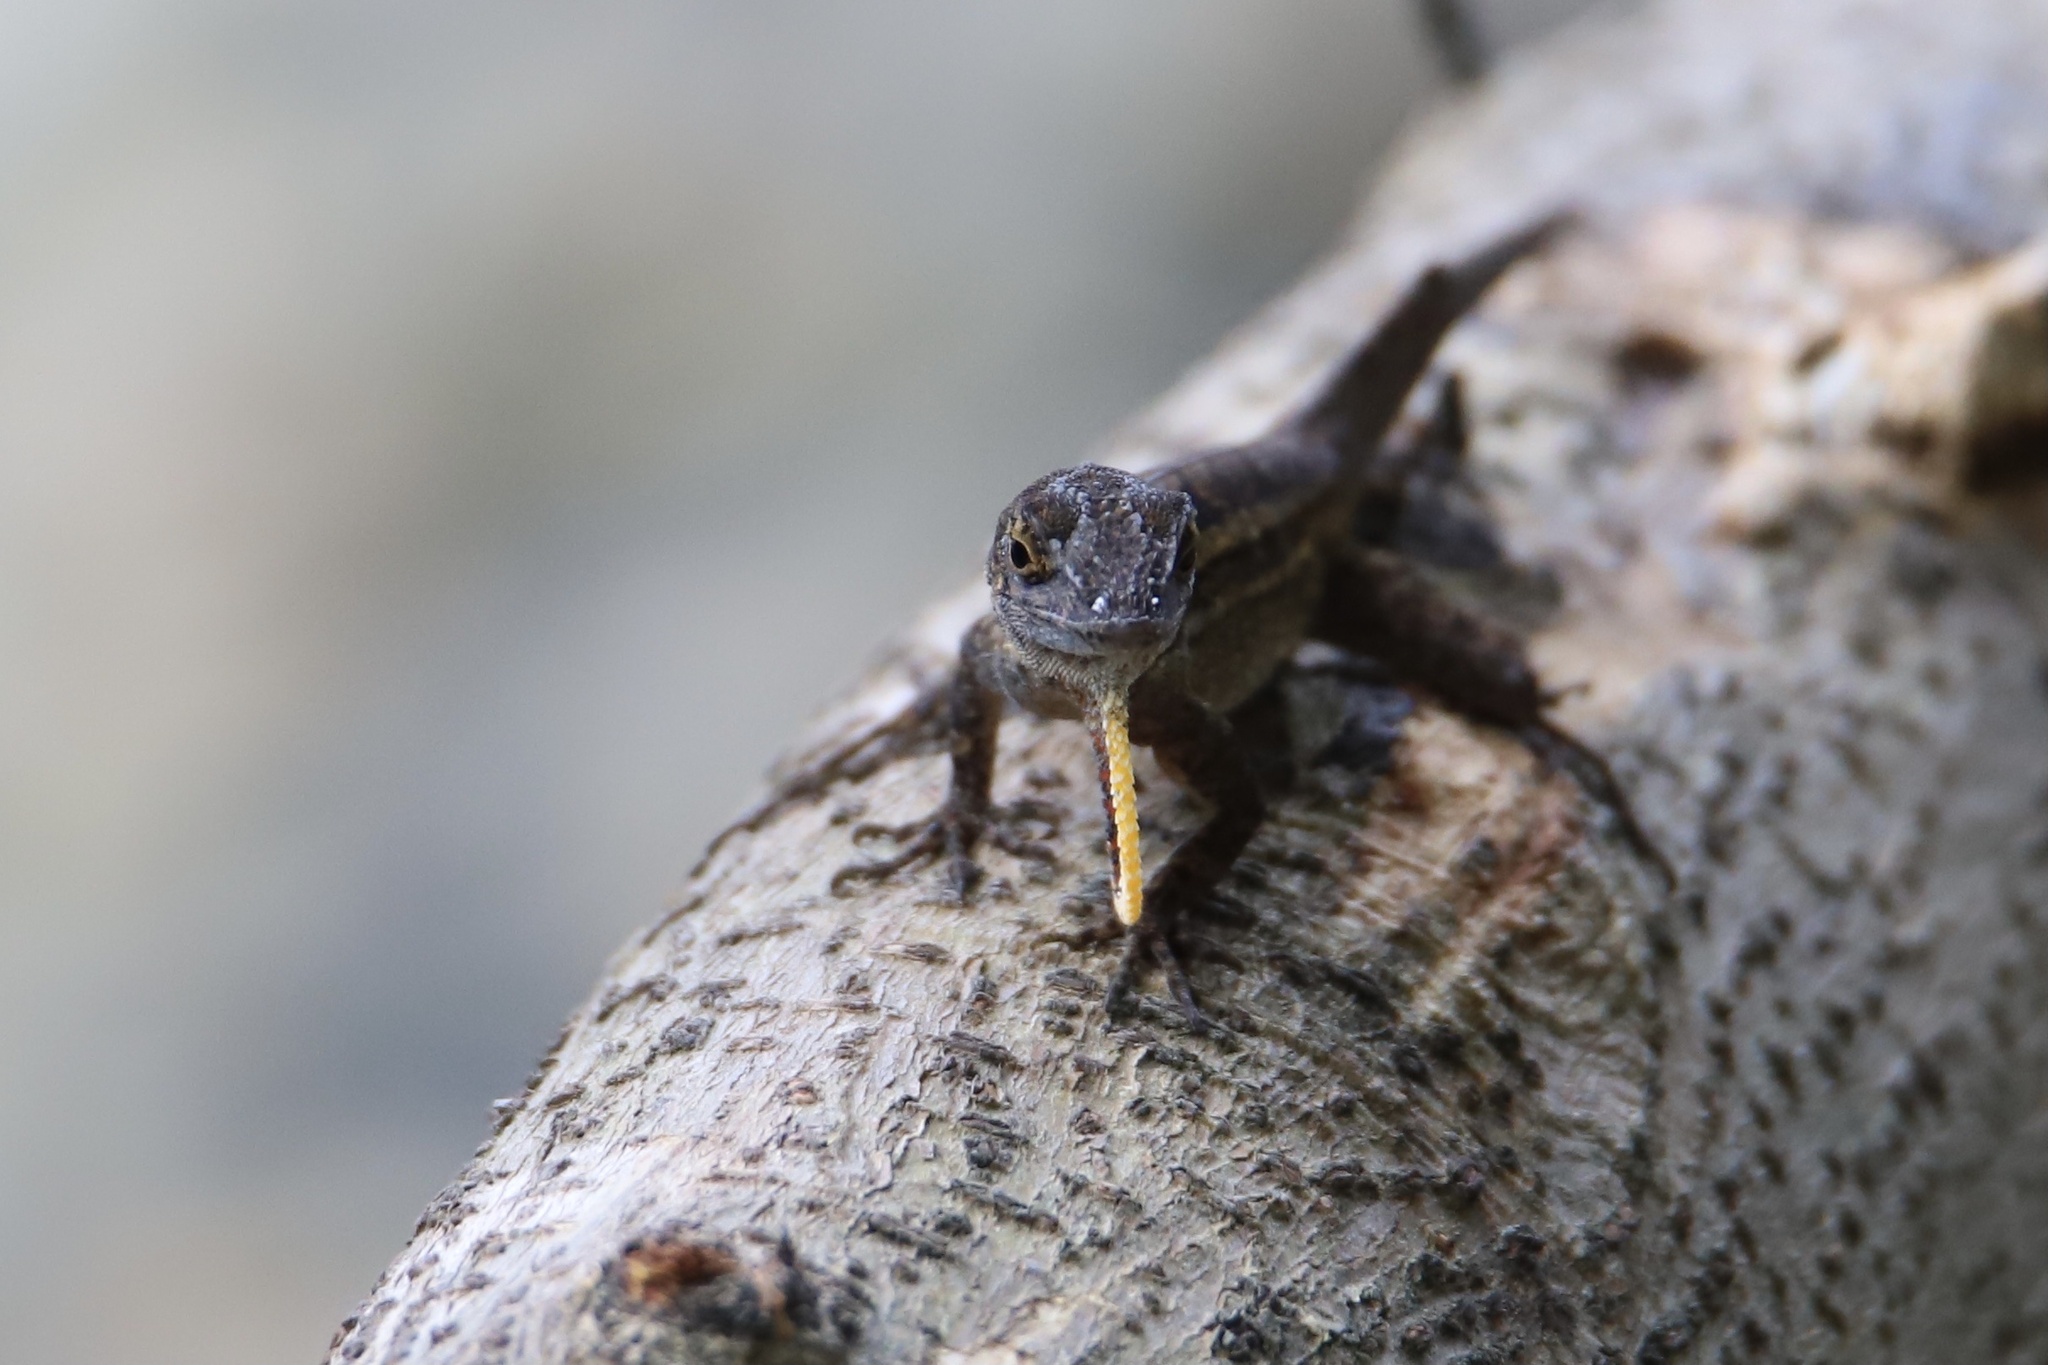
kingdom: Animalia
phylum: Chordata
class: Squamata
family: Dactyloidae
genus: Anolis
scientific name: Anolis sagrei
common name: Brown anole
